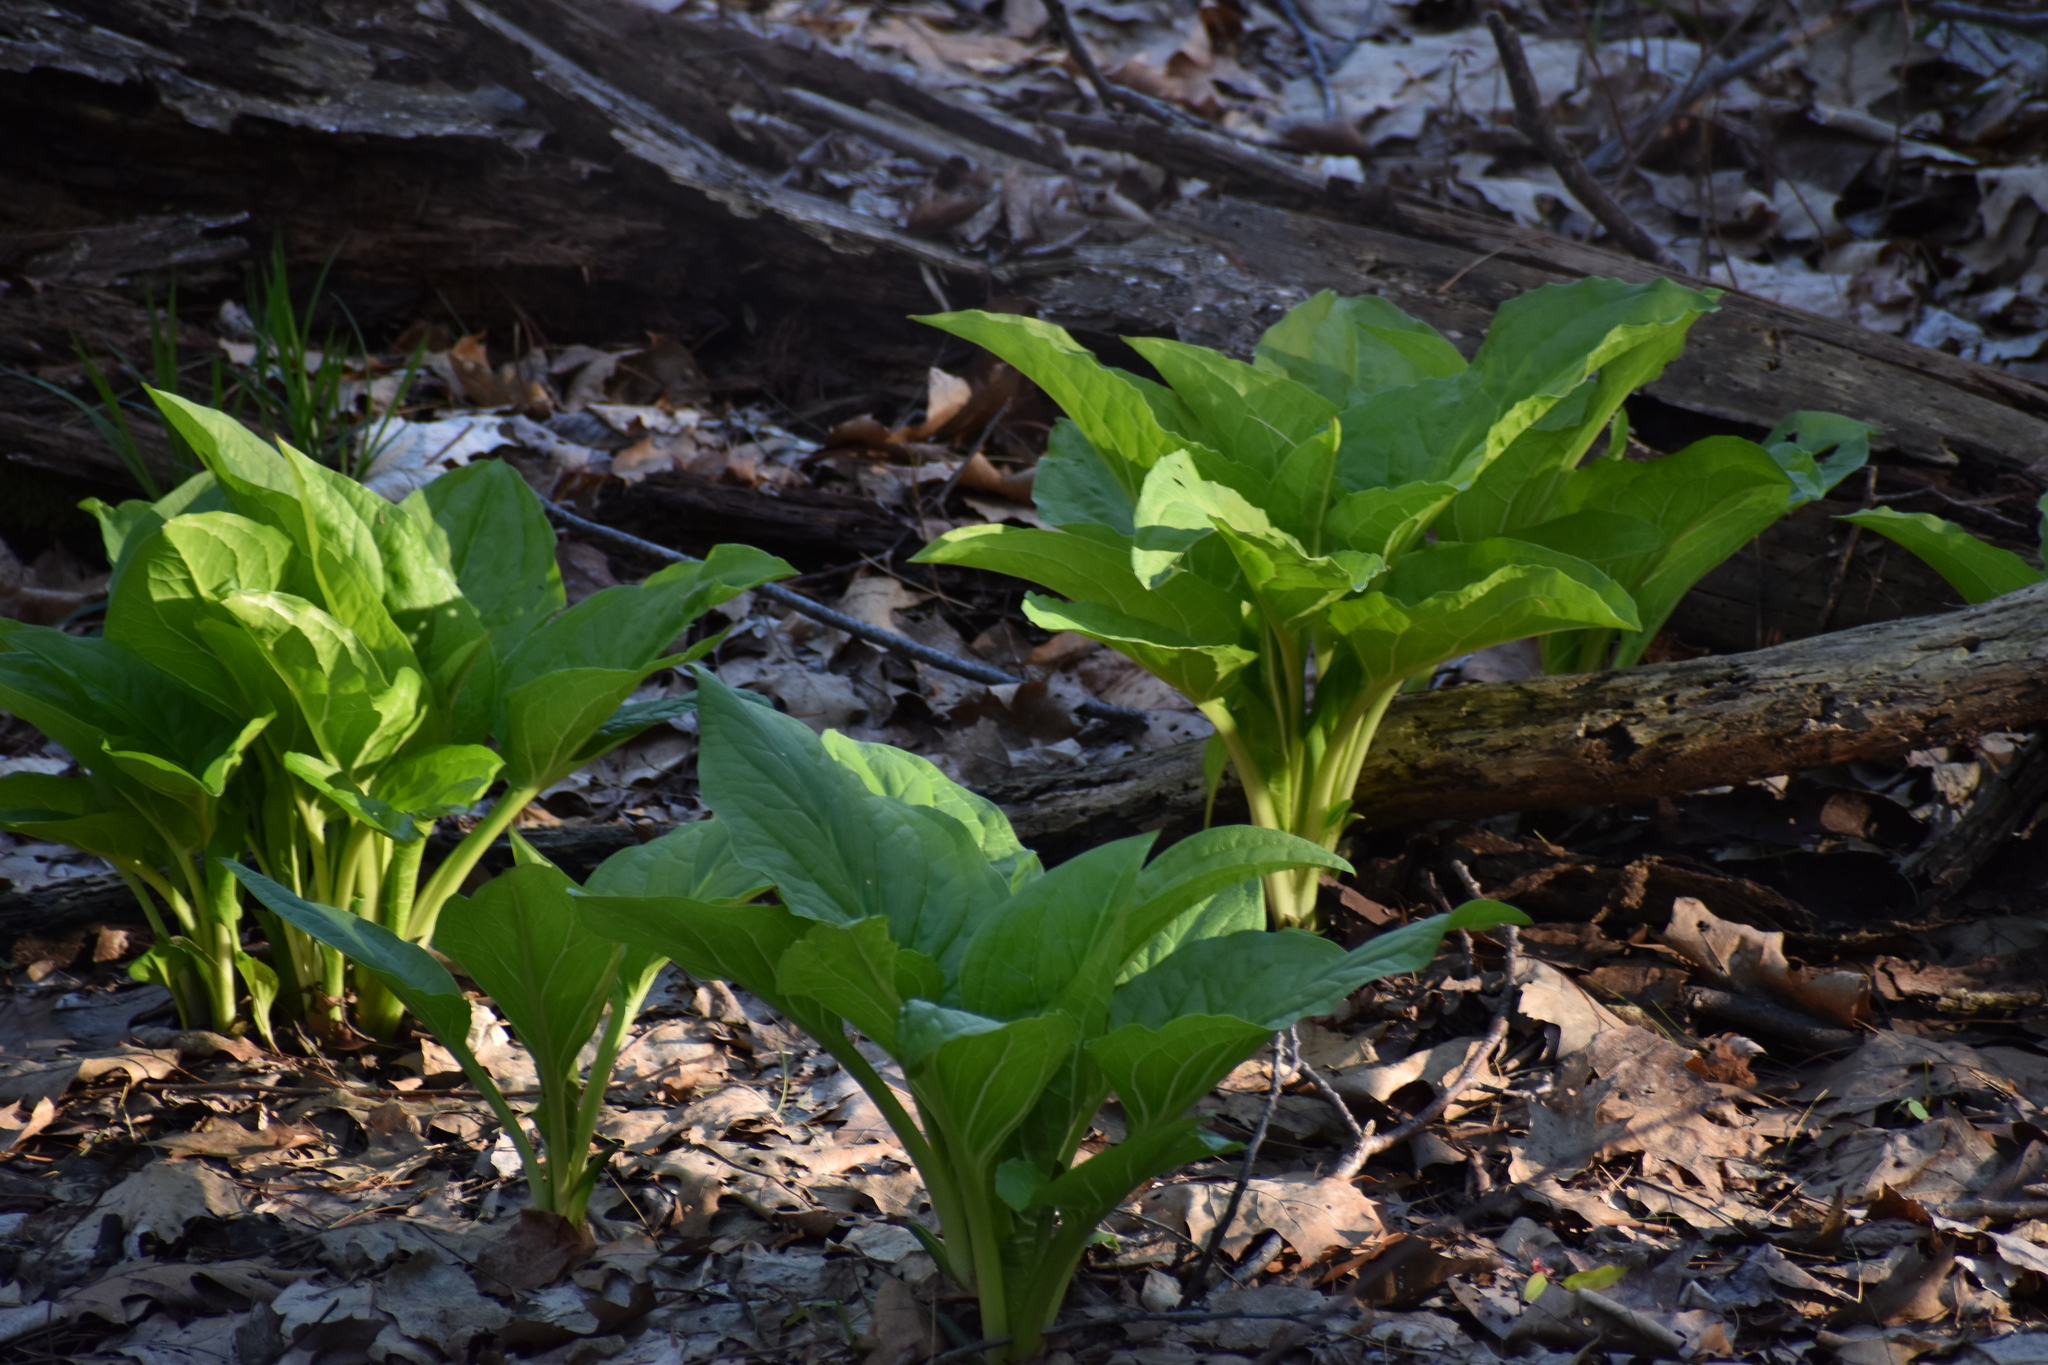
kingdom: Plantae
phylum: Tracheophyta
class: Liliopsida
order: Alismatales
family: Araceae
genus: Symplocarpus
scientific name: Symplocarpus foetidus
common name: Eastern skunk cabbage
